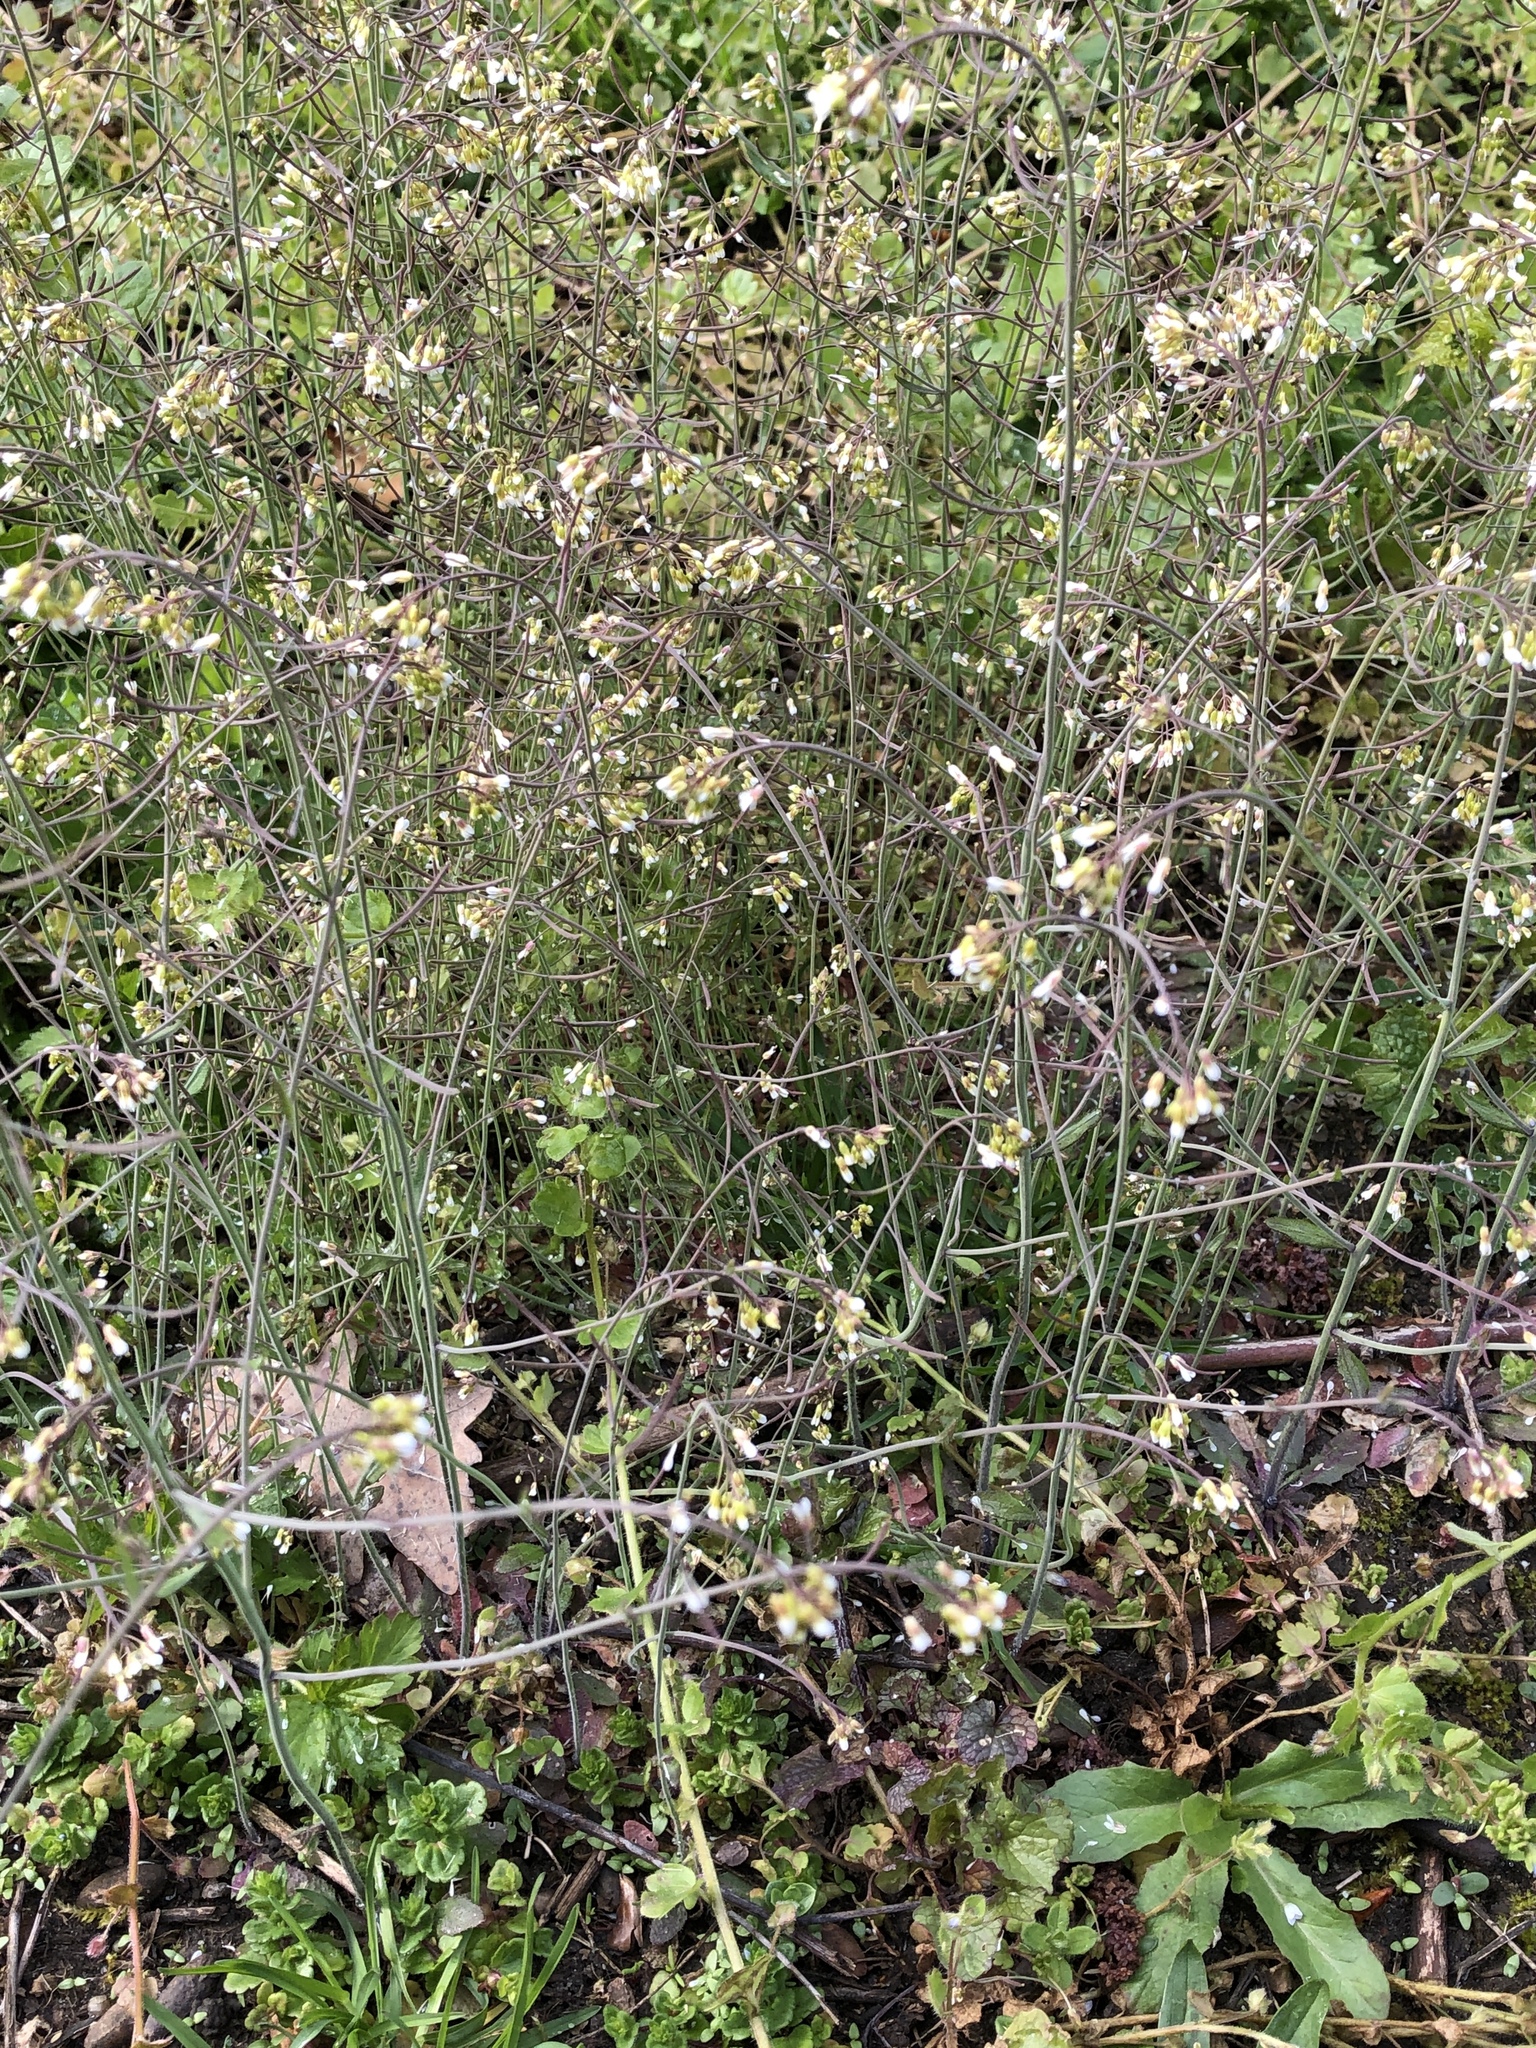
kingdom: Plantae
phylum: Tracheophyta
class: Magnoliopsida
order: Brassicales
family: Brassicaceae
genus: Arabidopsis
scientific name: Arabidopsis thaliana
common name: Thale cress
